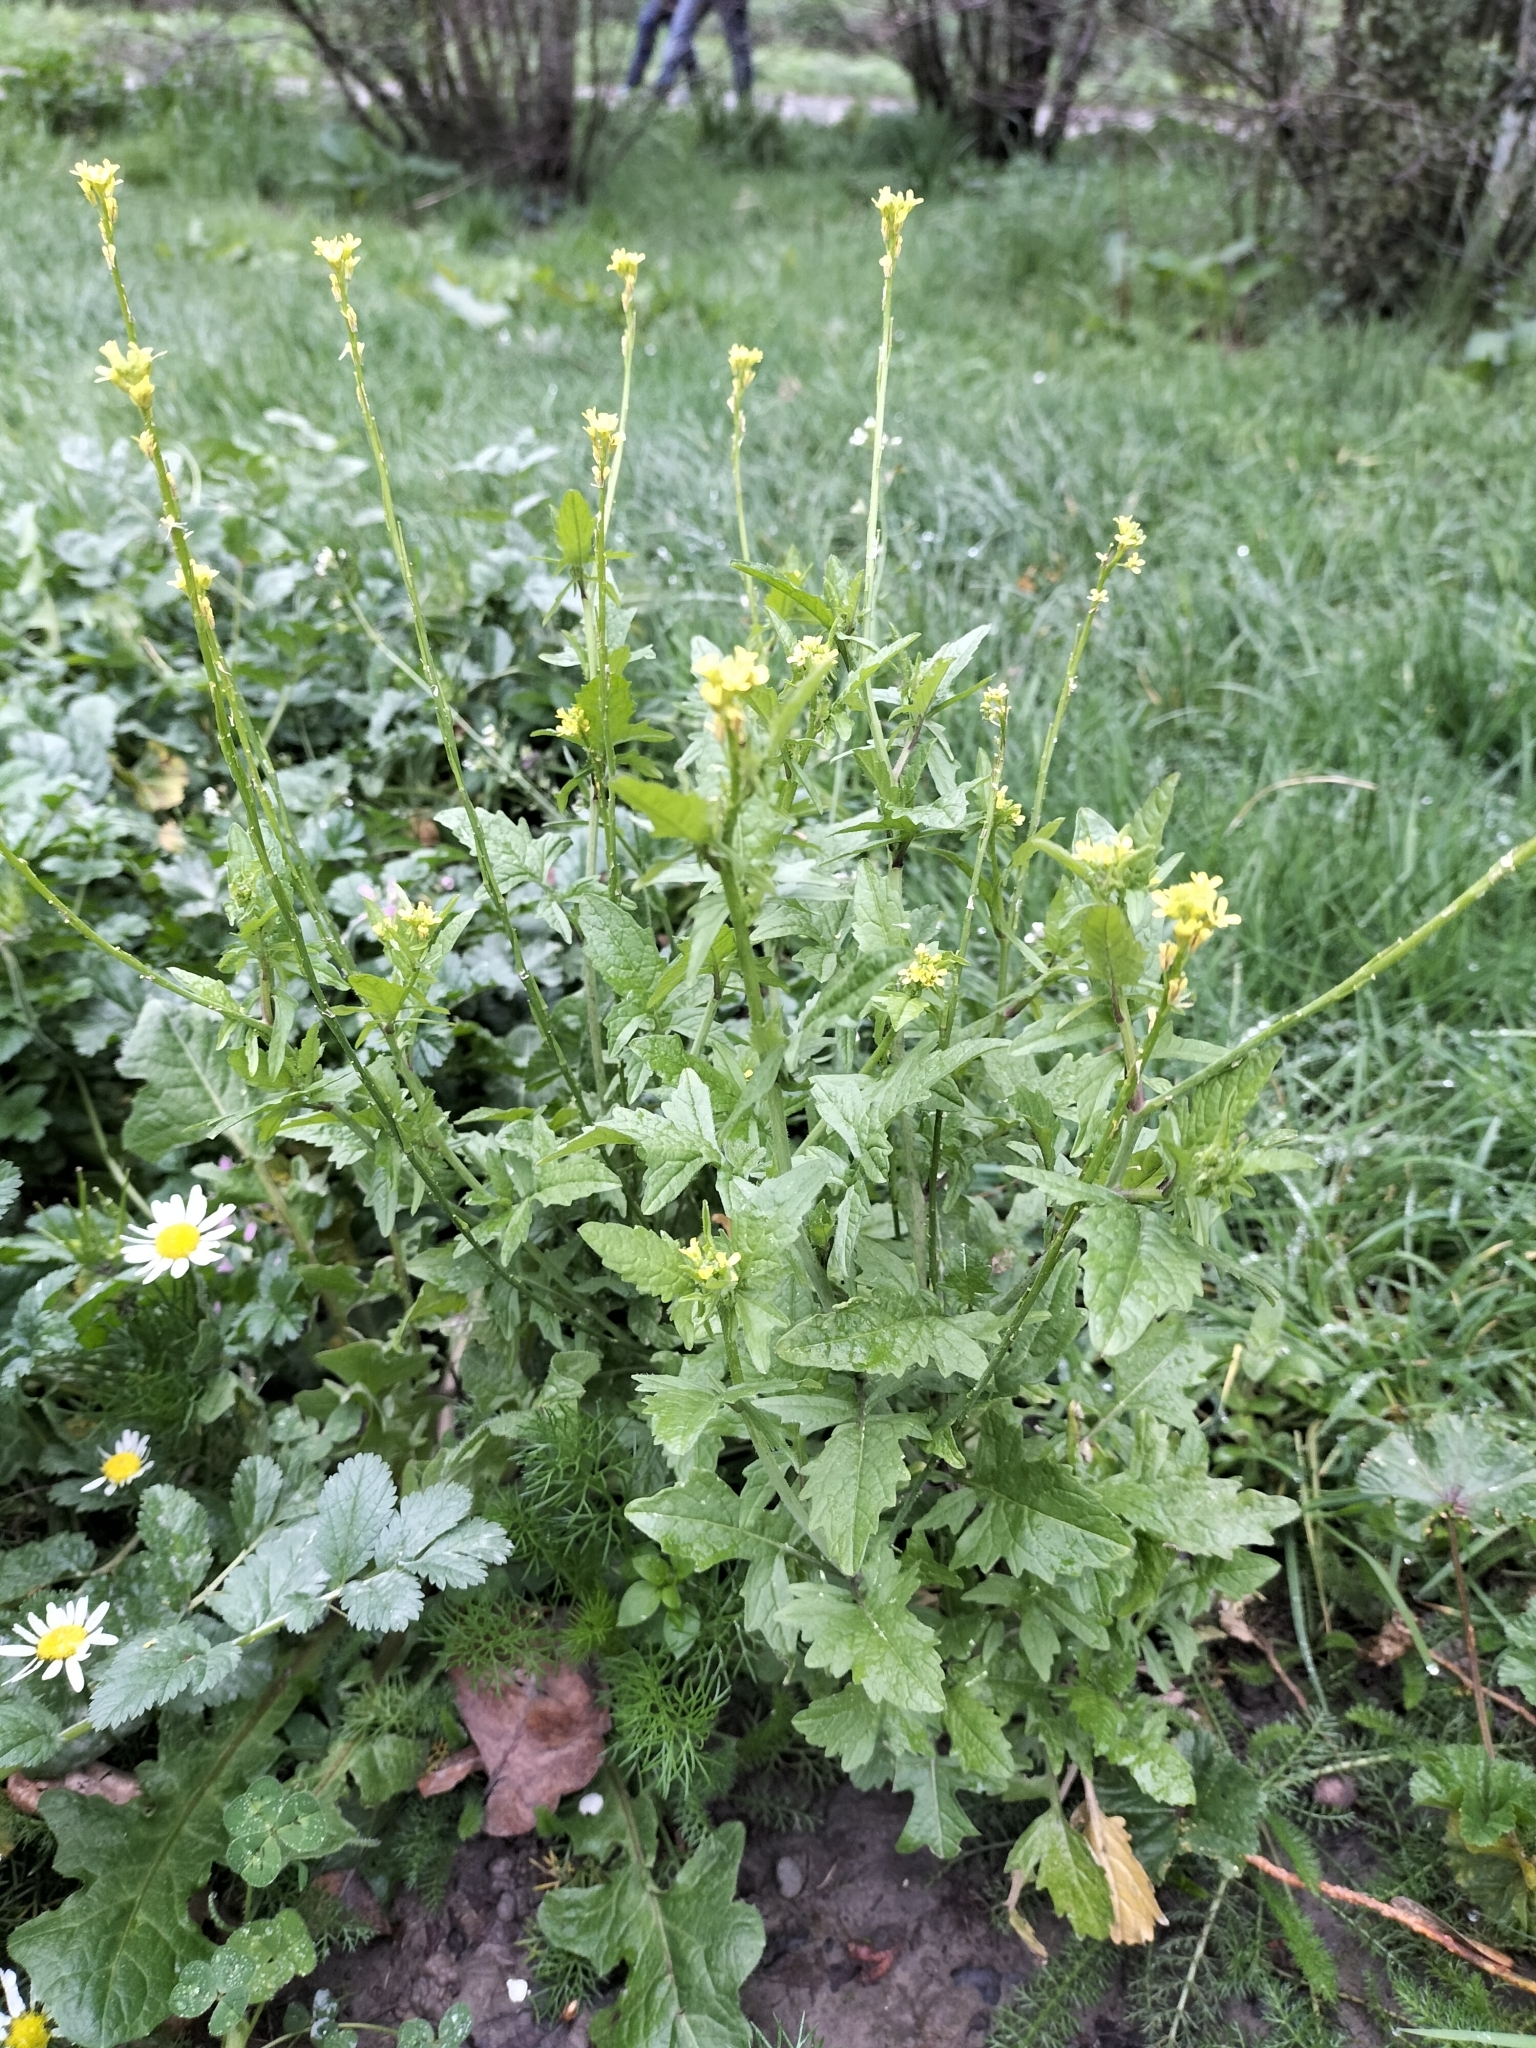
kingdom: Plantae
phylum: Tracheophyta
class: Magnoliopsida
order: Brassicales
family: Brassicaceae
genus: Sisymbrium
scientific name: Sisymbrium officinale
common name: Hedge mustard
